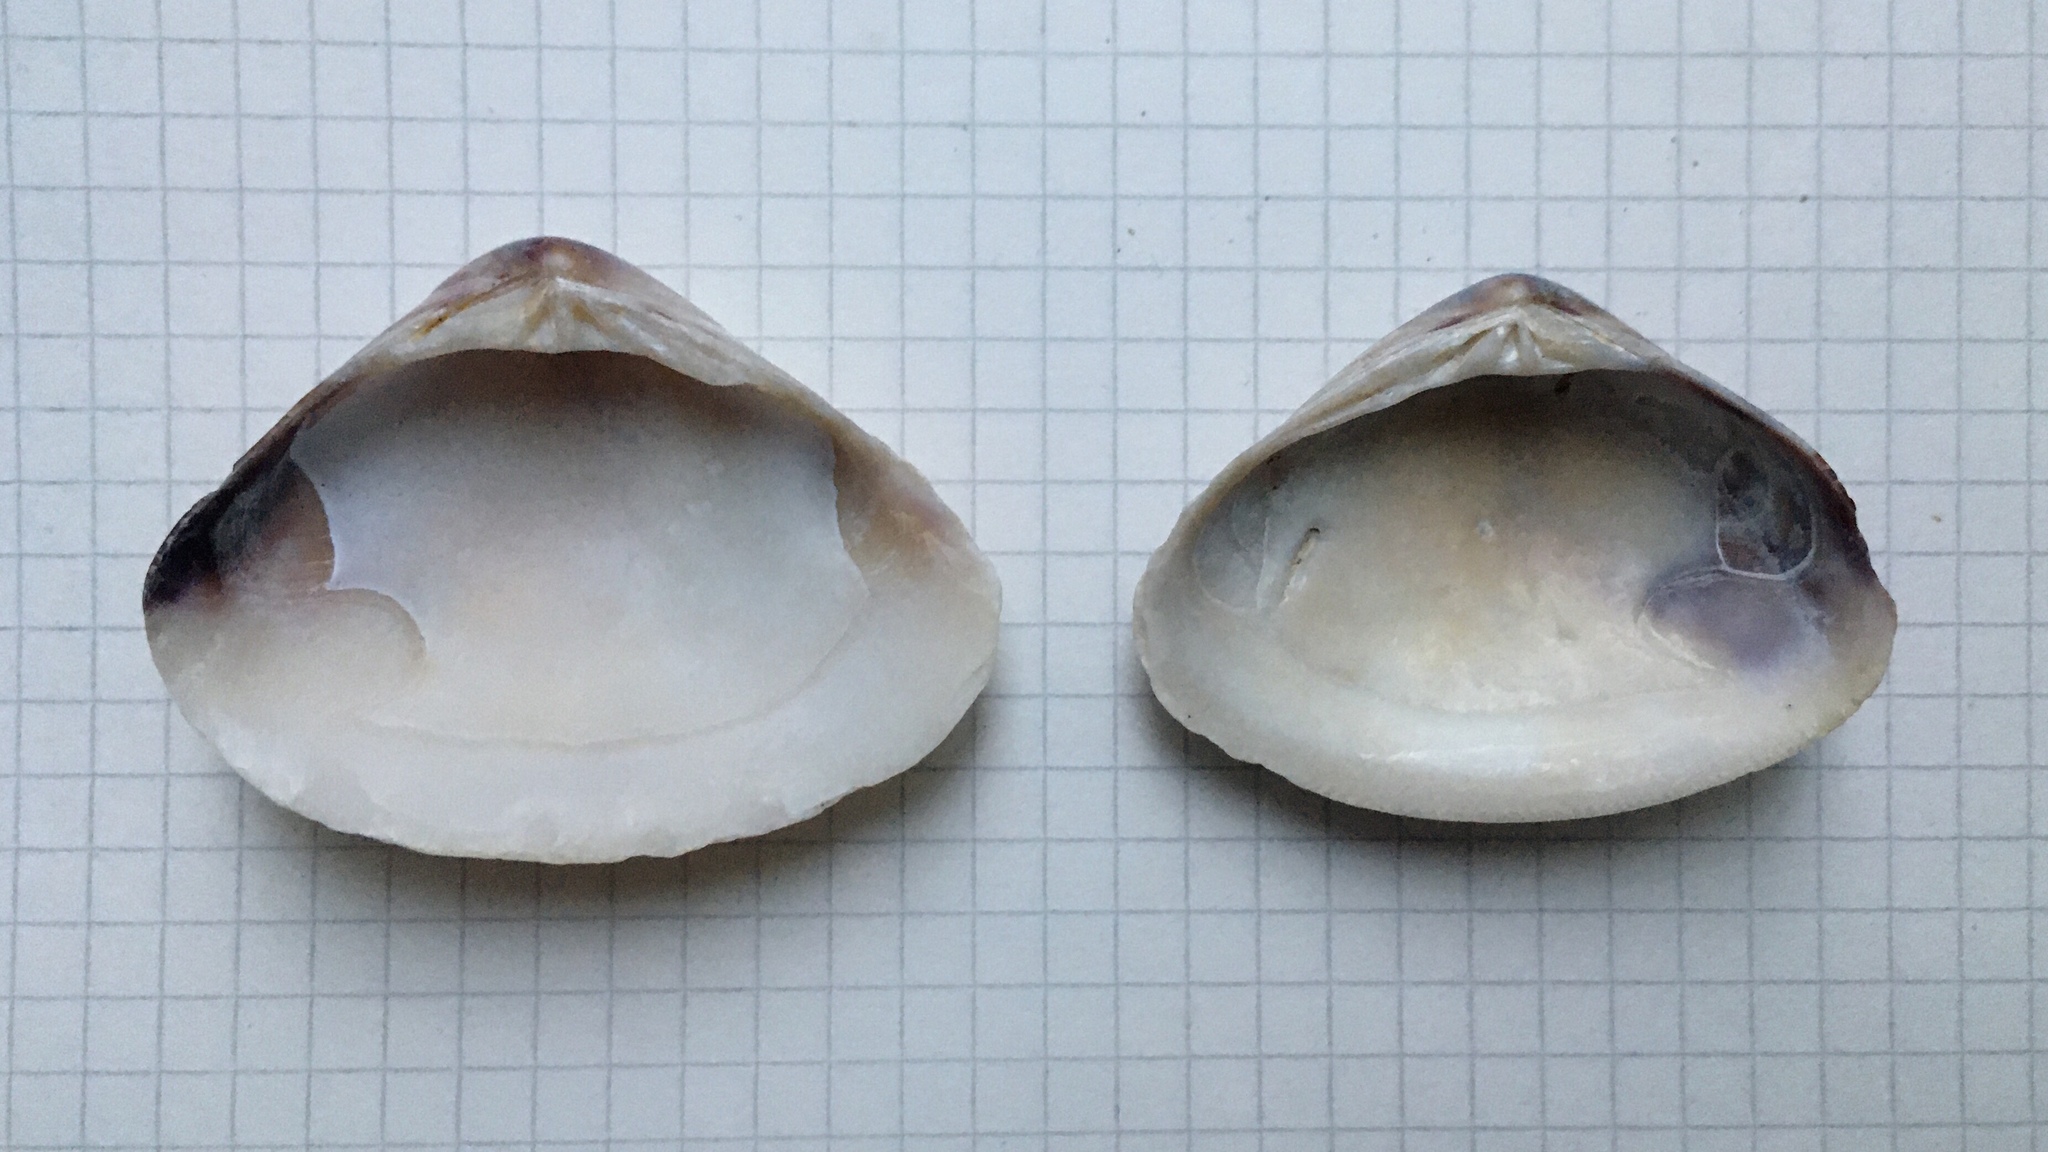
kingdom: Animalia
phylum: Mollusca
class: Bivalvia
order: Venerida
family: Veneridae
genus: Tivela
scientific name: Tivela dentaria
